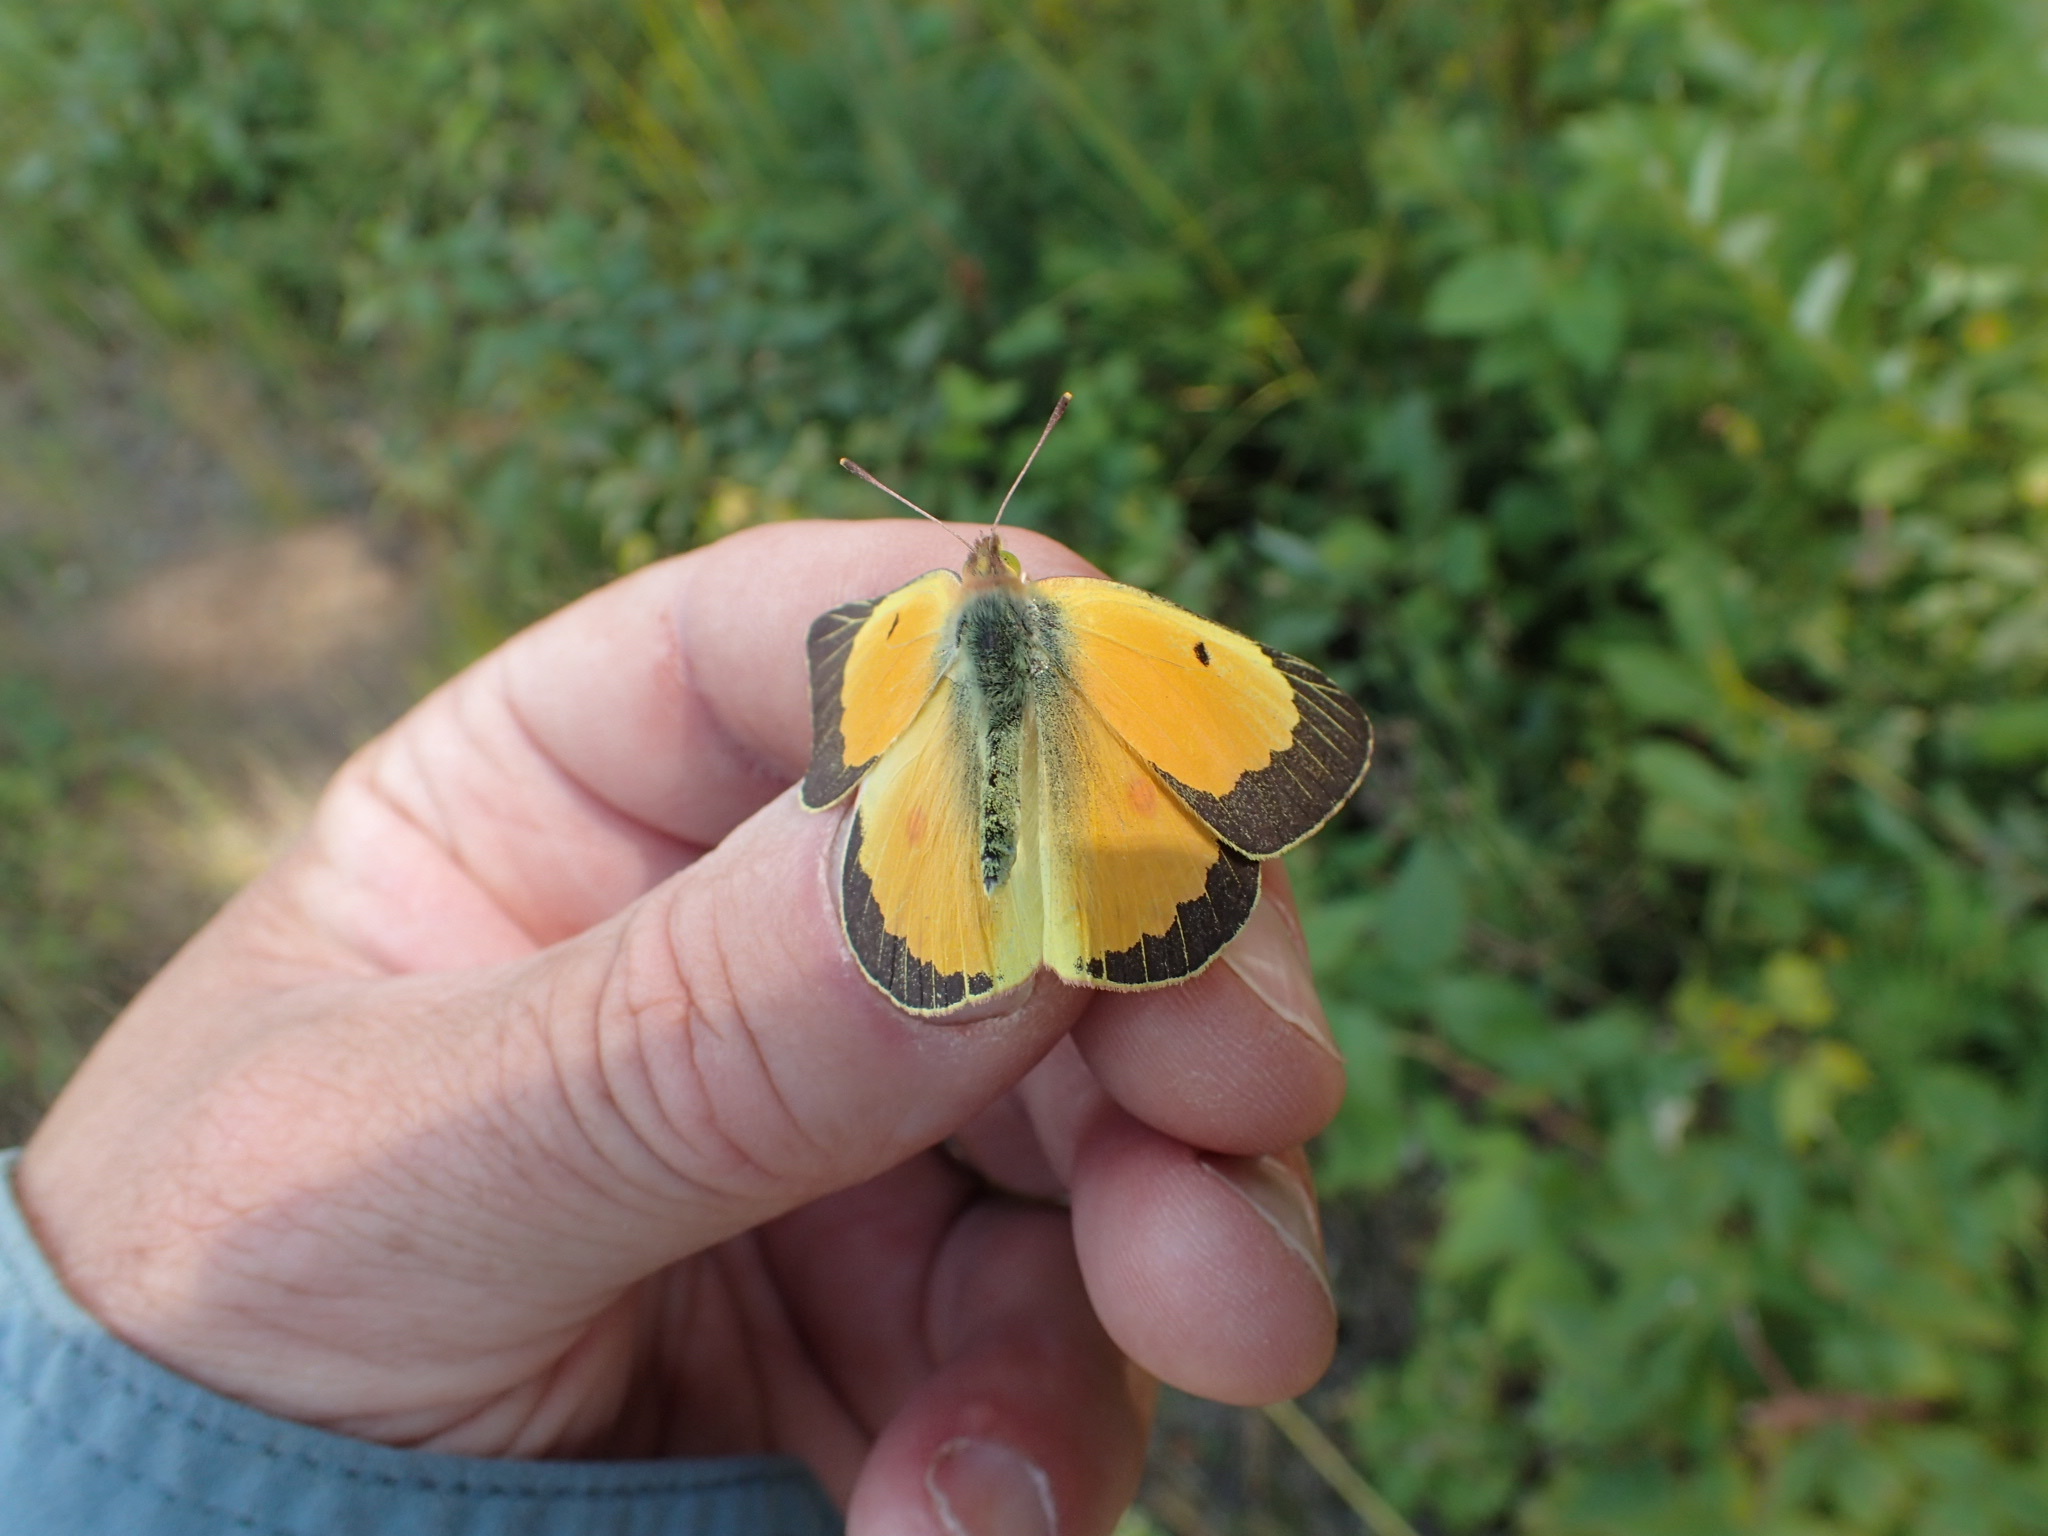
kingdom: Animalia
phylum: Arthropoda
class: Insecta
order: Lepidoptera
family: Pieridae
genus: Colias
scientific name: Colias eurytheme
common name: Alfalfa butterfly
